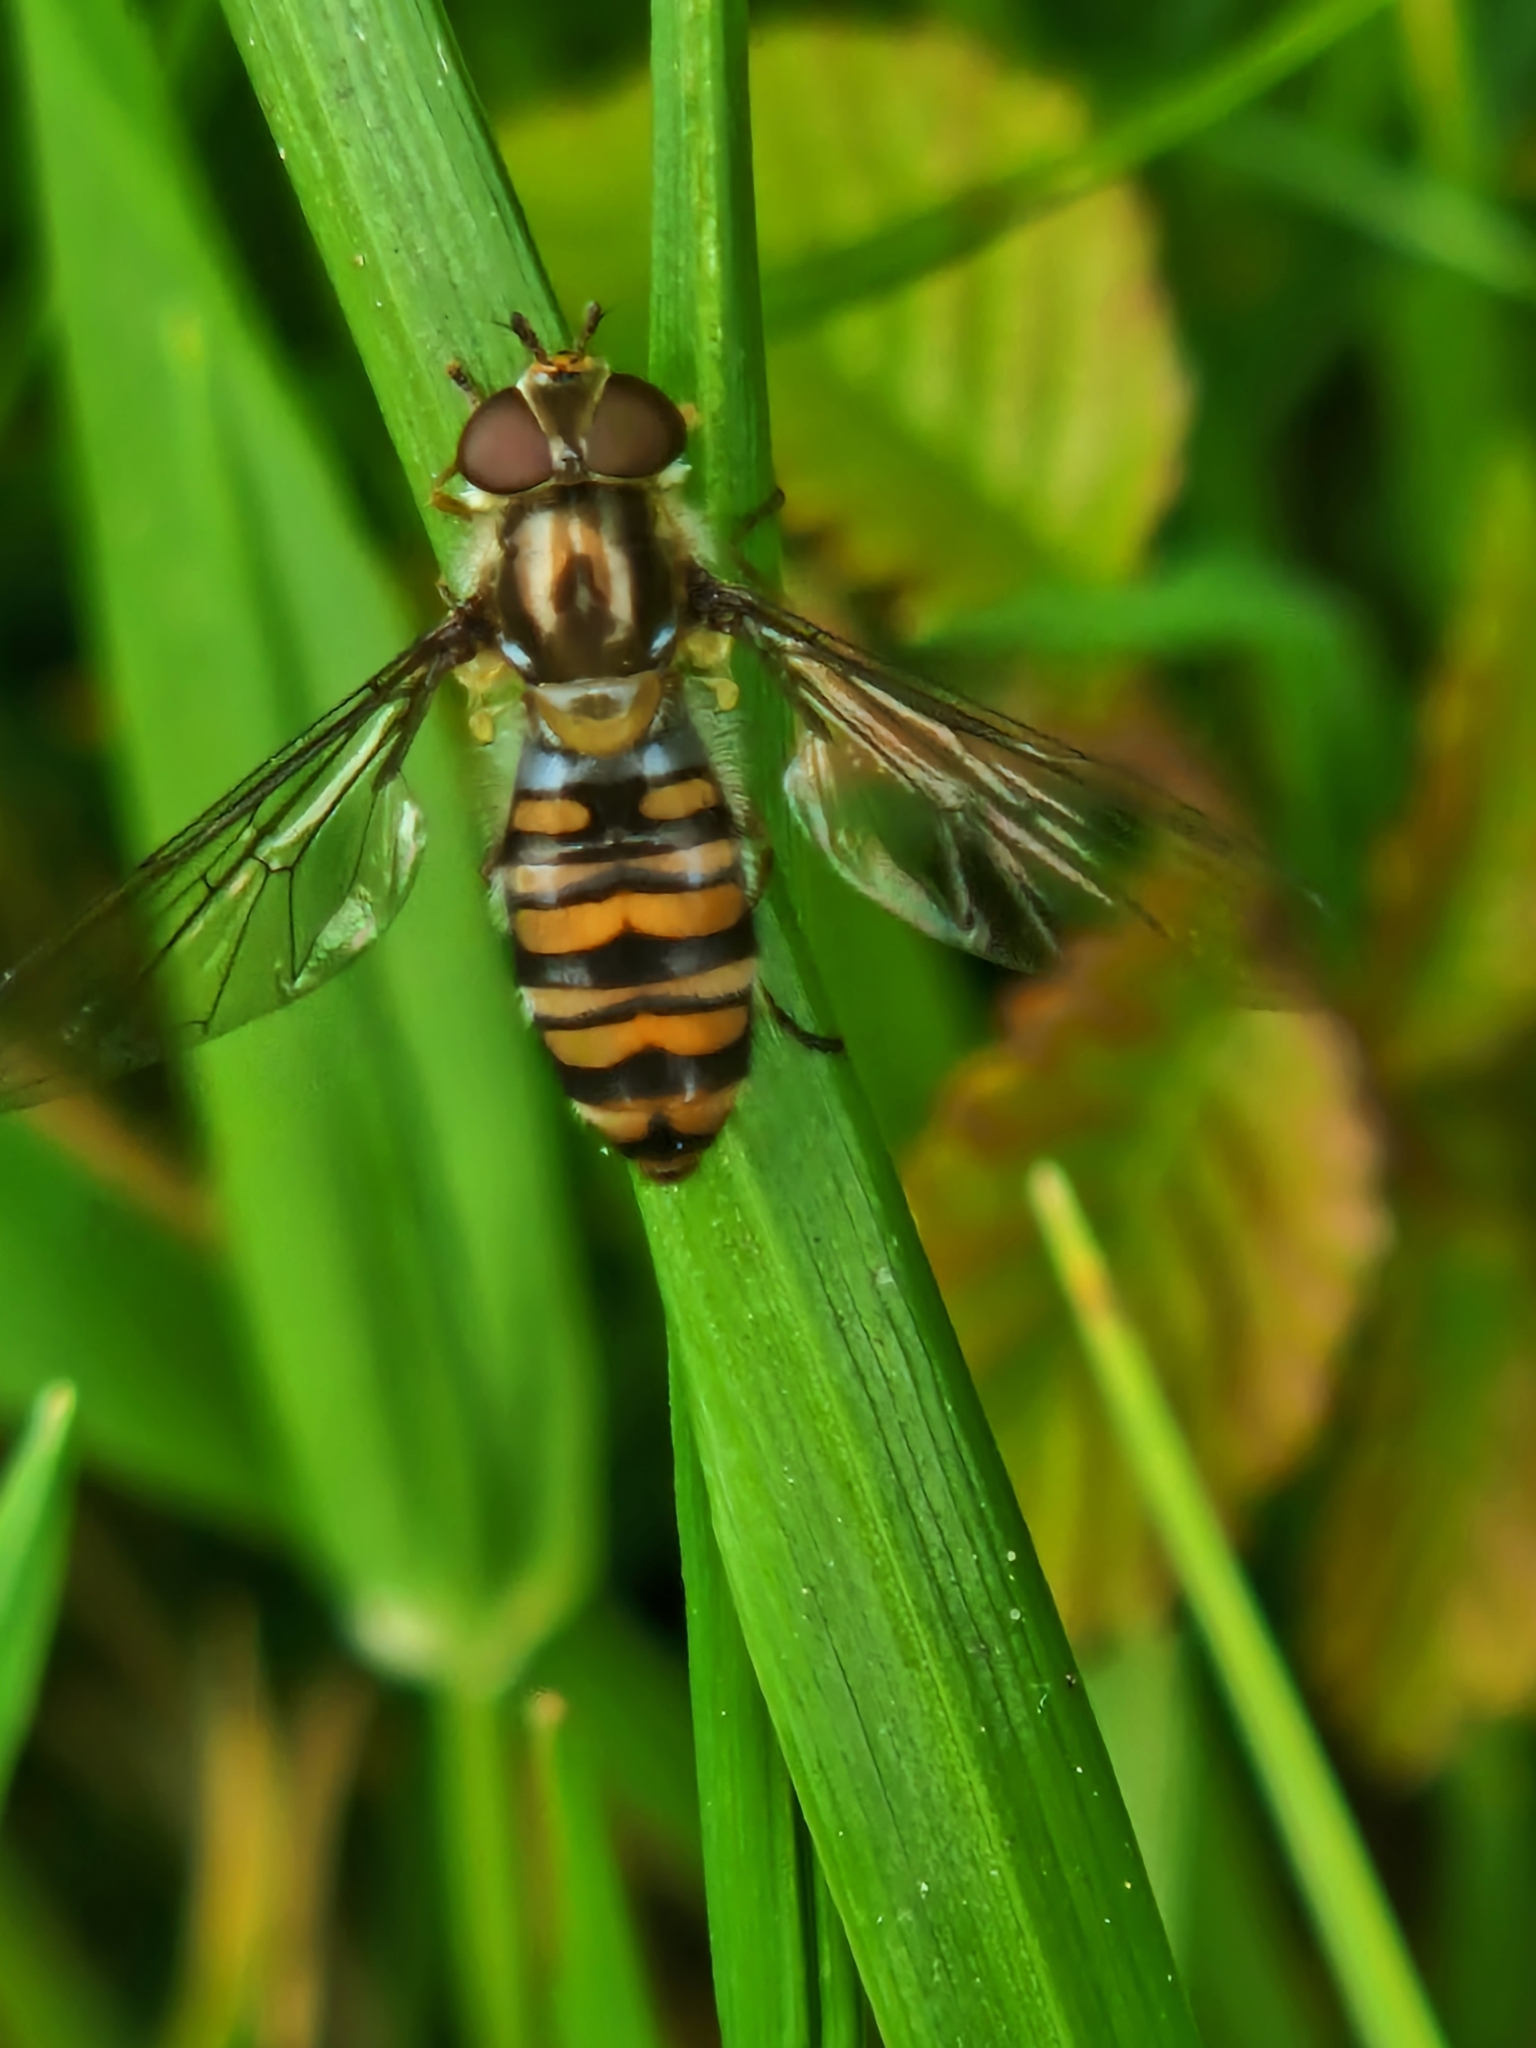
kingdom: Animalia
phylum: Arthropoda
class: Insecta
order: Diptera
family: Syrphidae
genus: Episyrphus
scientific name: Episyrphus balteatus
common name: Marmalade hoverfly
